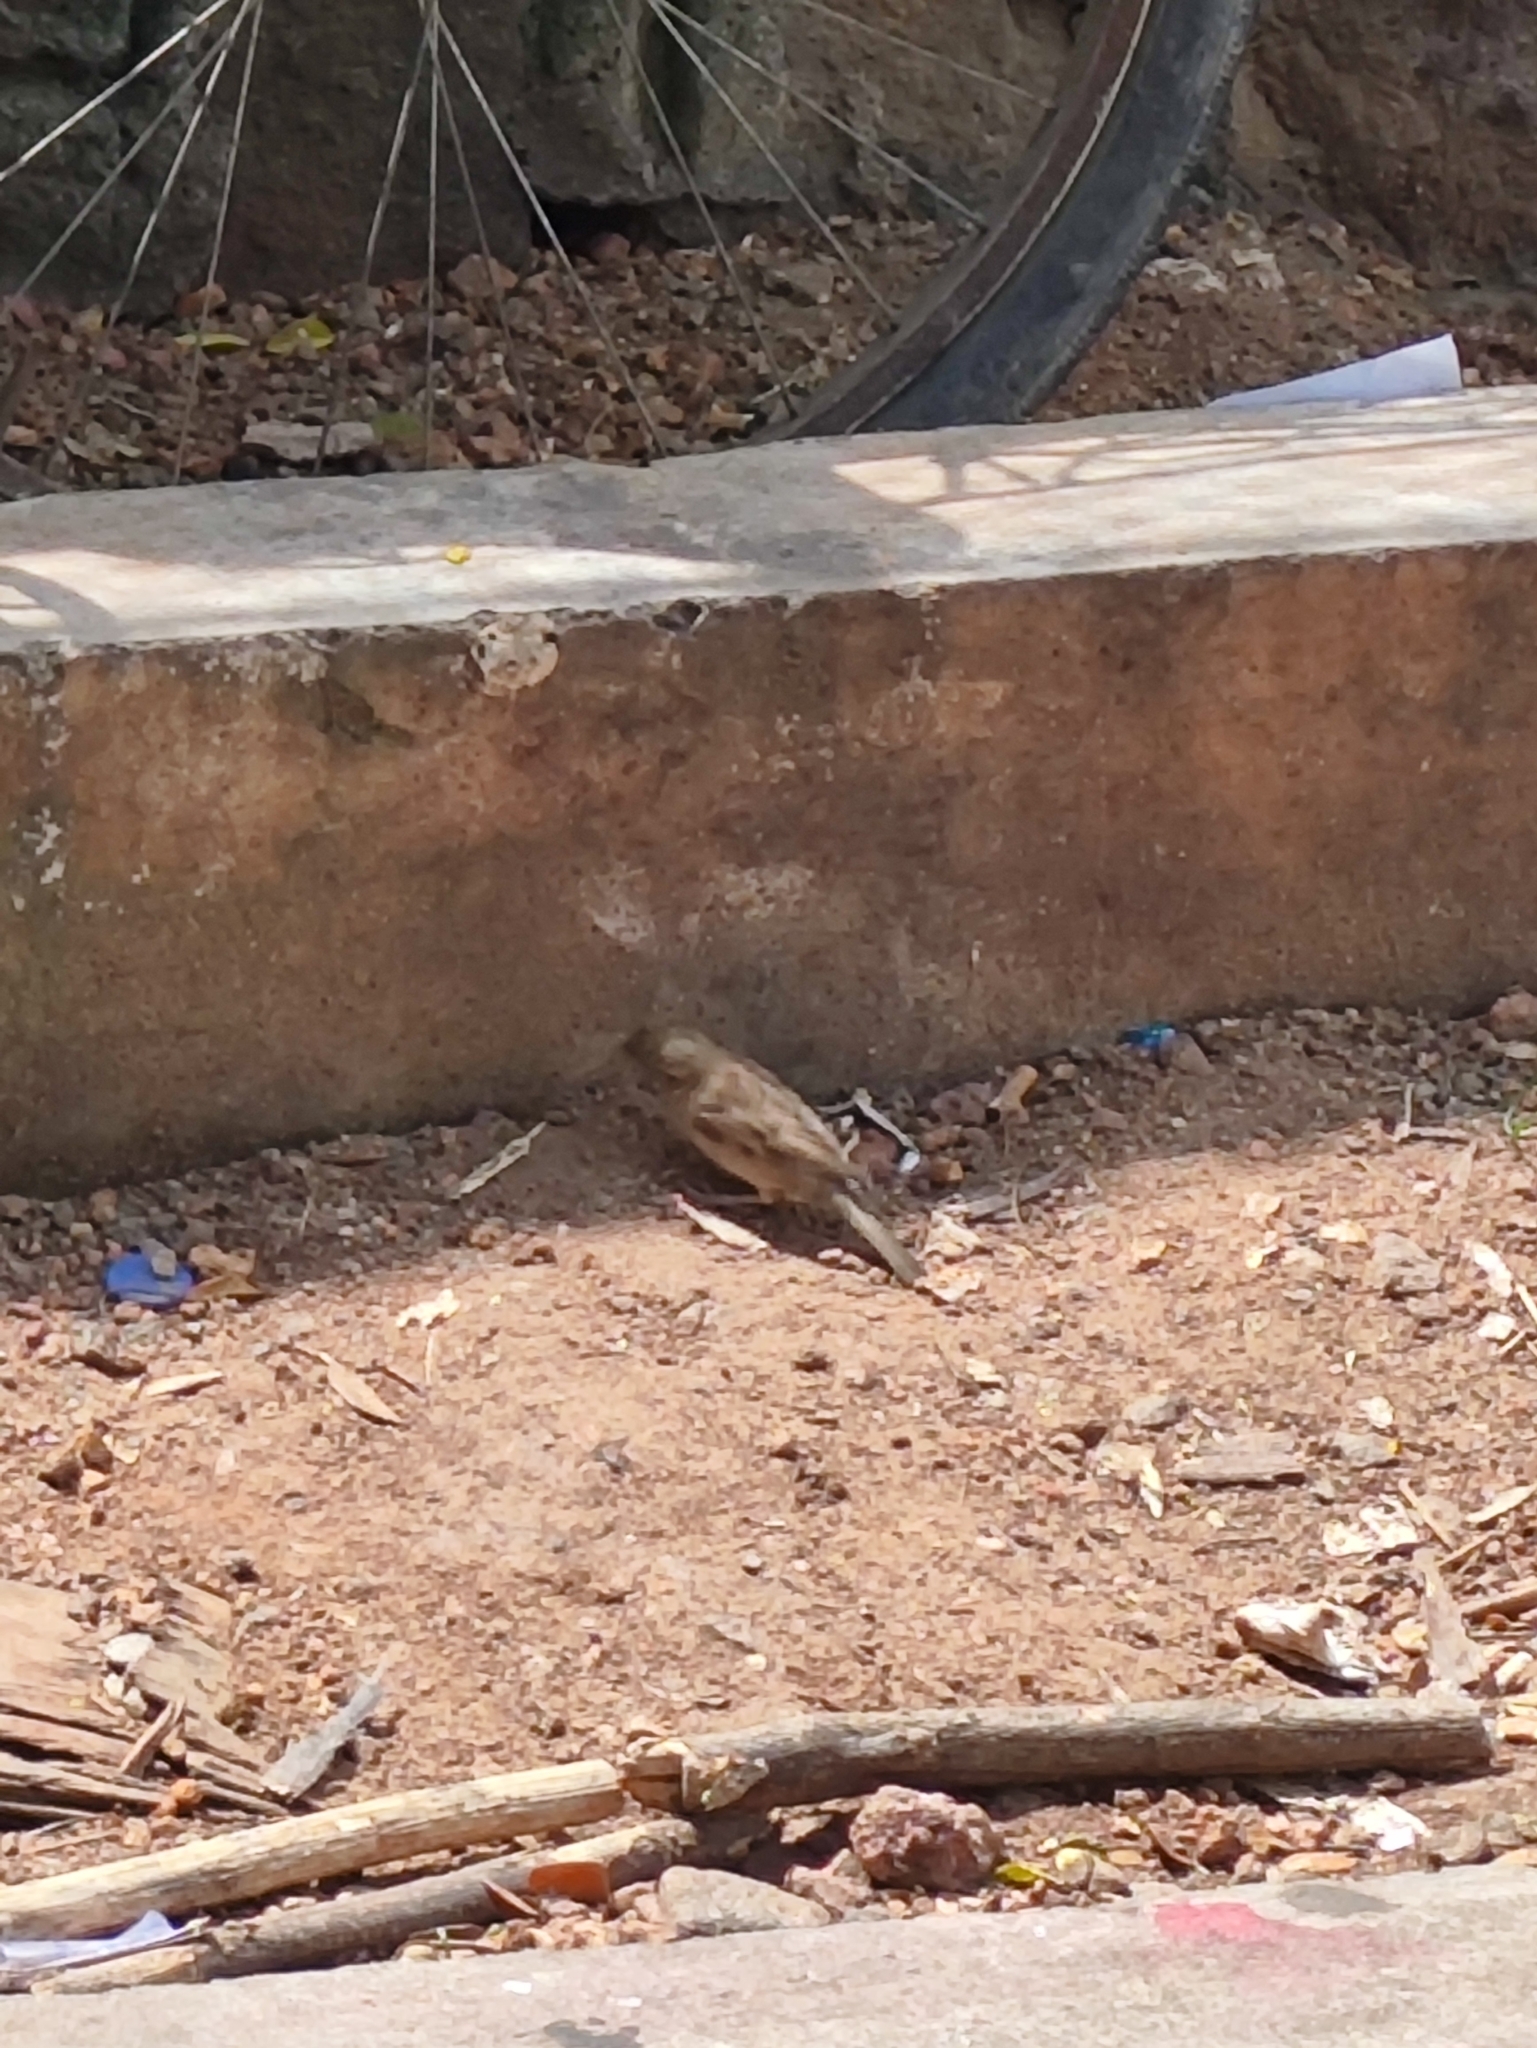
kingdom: Animalia
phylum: Chordata
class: Aves
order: Passeriformes
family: Passeridae
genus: Passer
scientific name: Passer domesticus
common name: House sparrow
